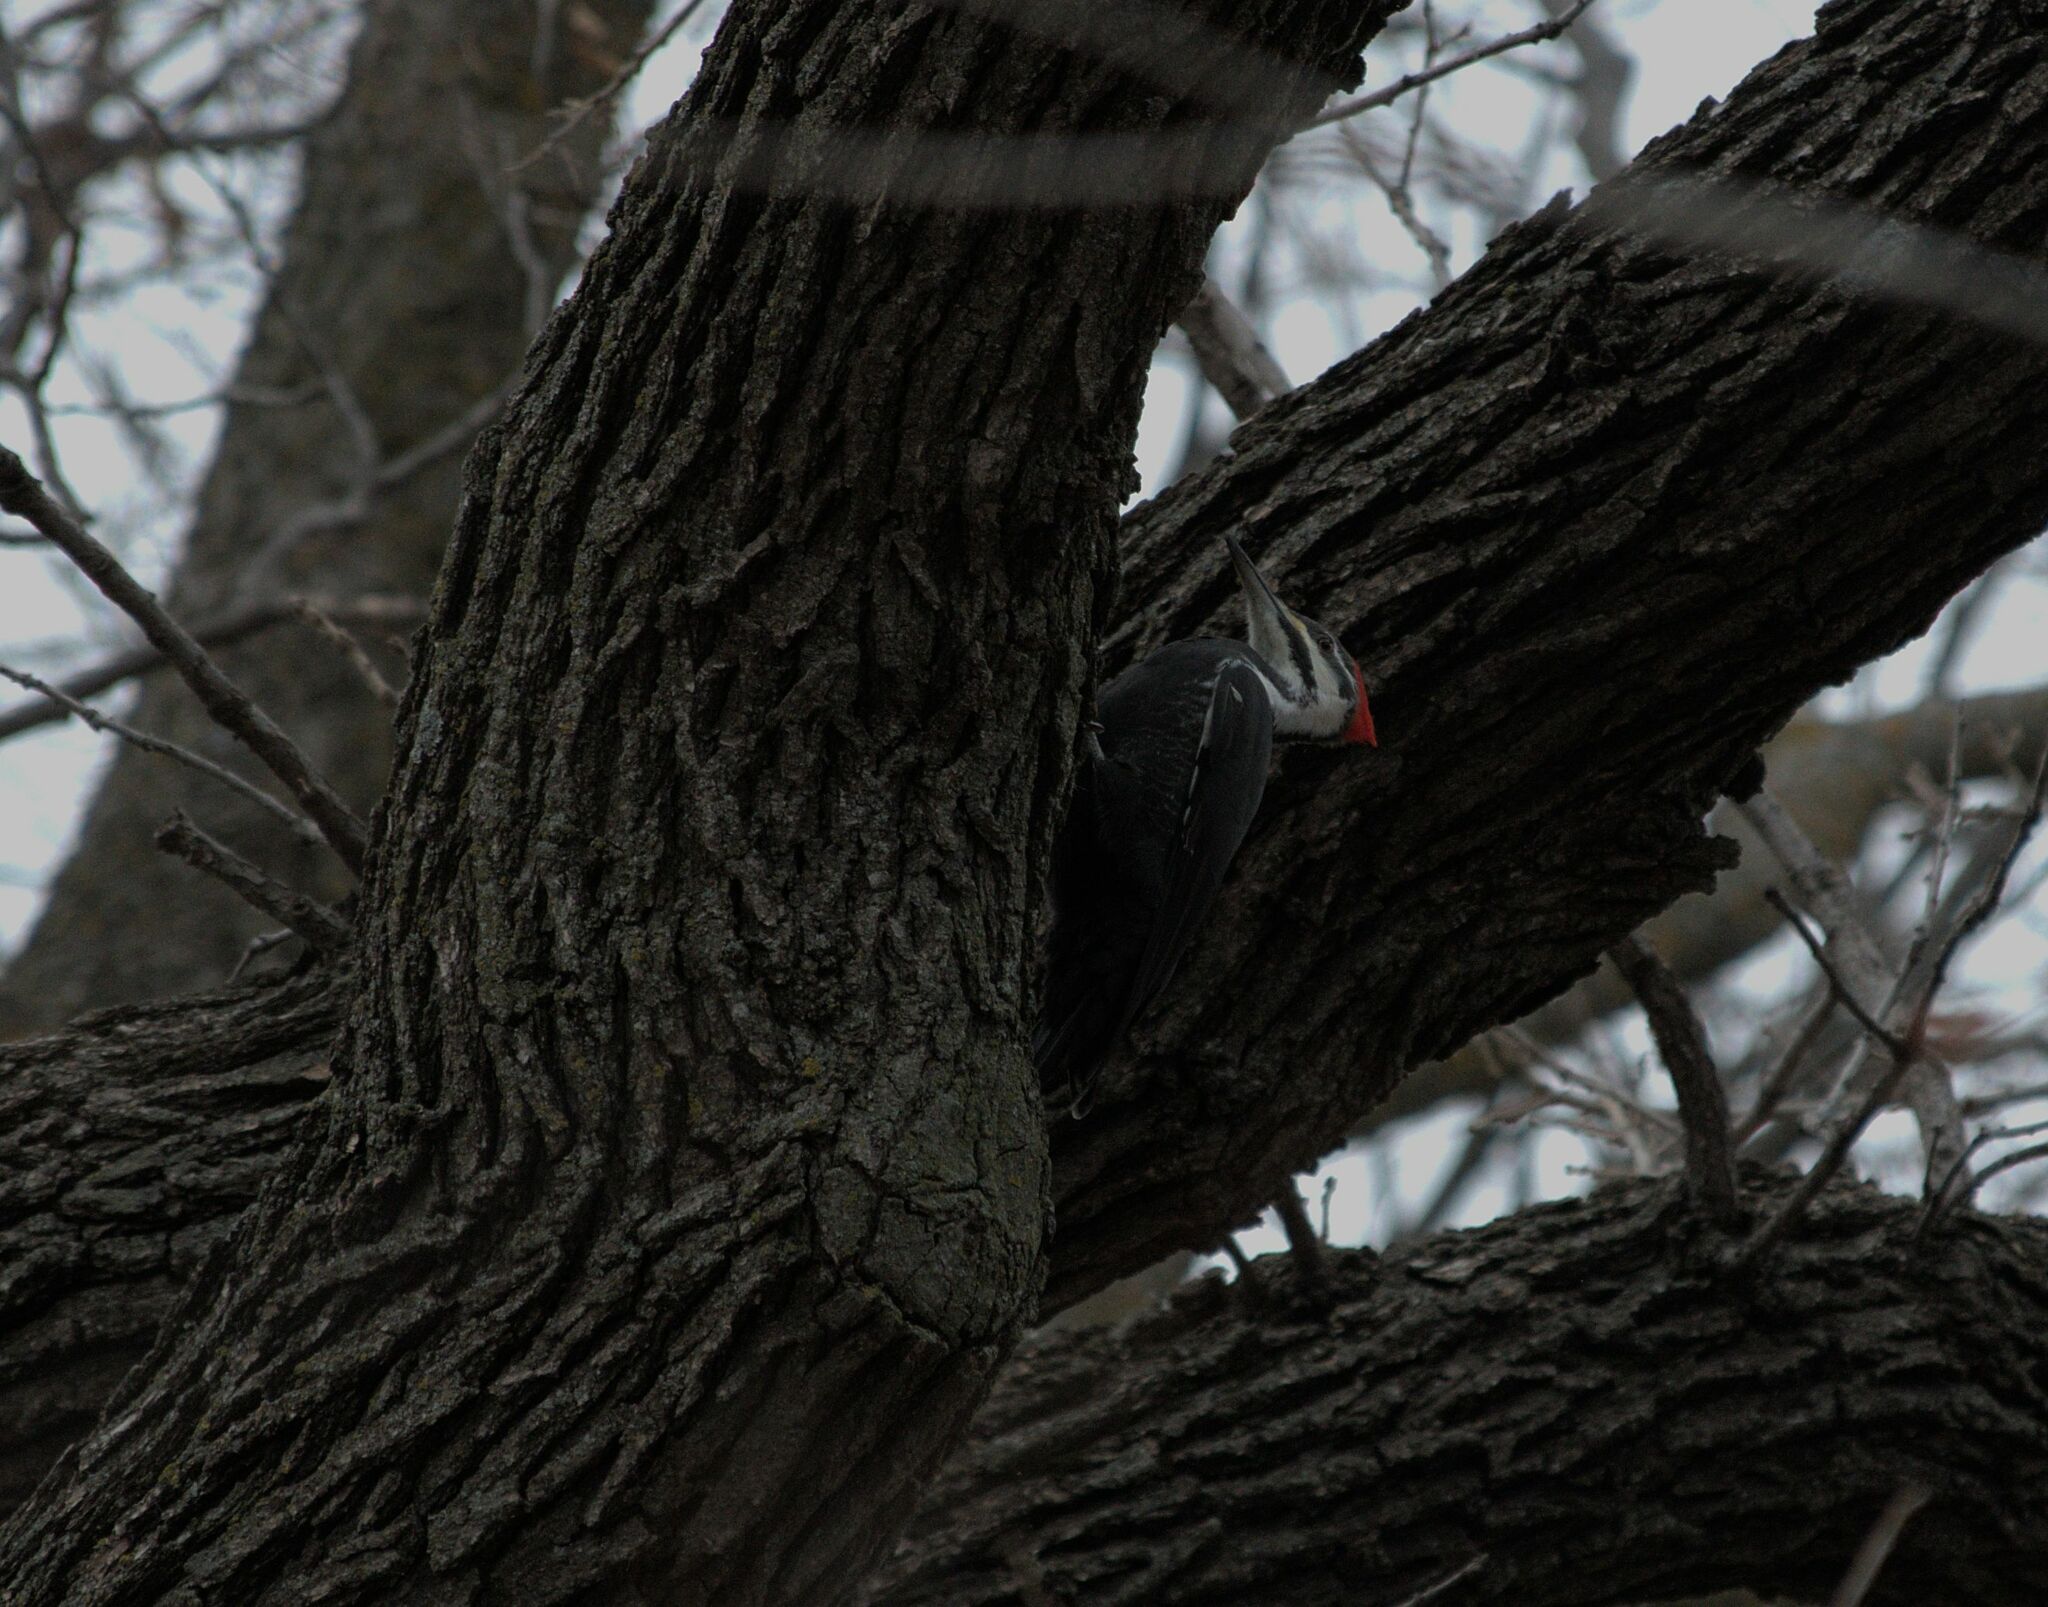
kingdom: Animalia
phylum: Chordata
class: Aves
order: Piciformes
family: Picidae
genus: Dryocopus
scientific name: Dryocopus pileatus
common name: Pileated woodpecker
